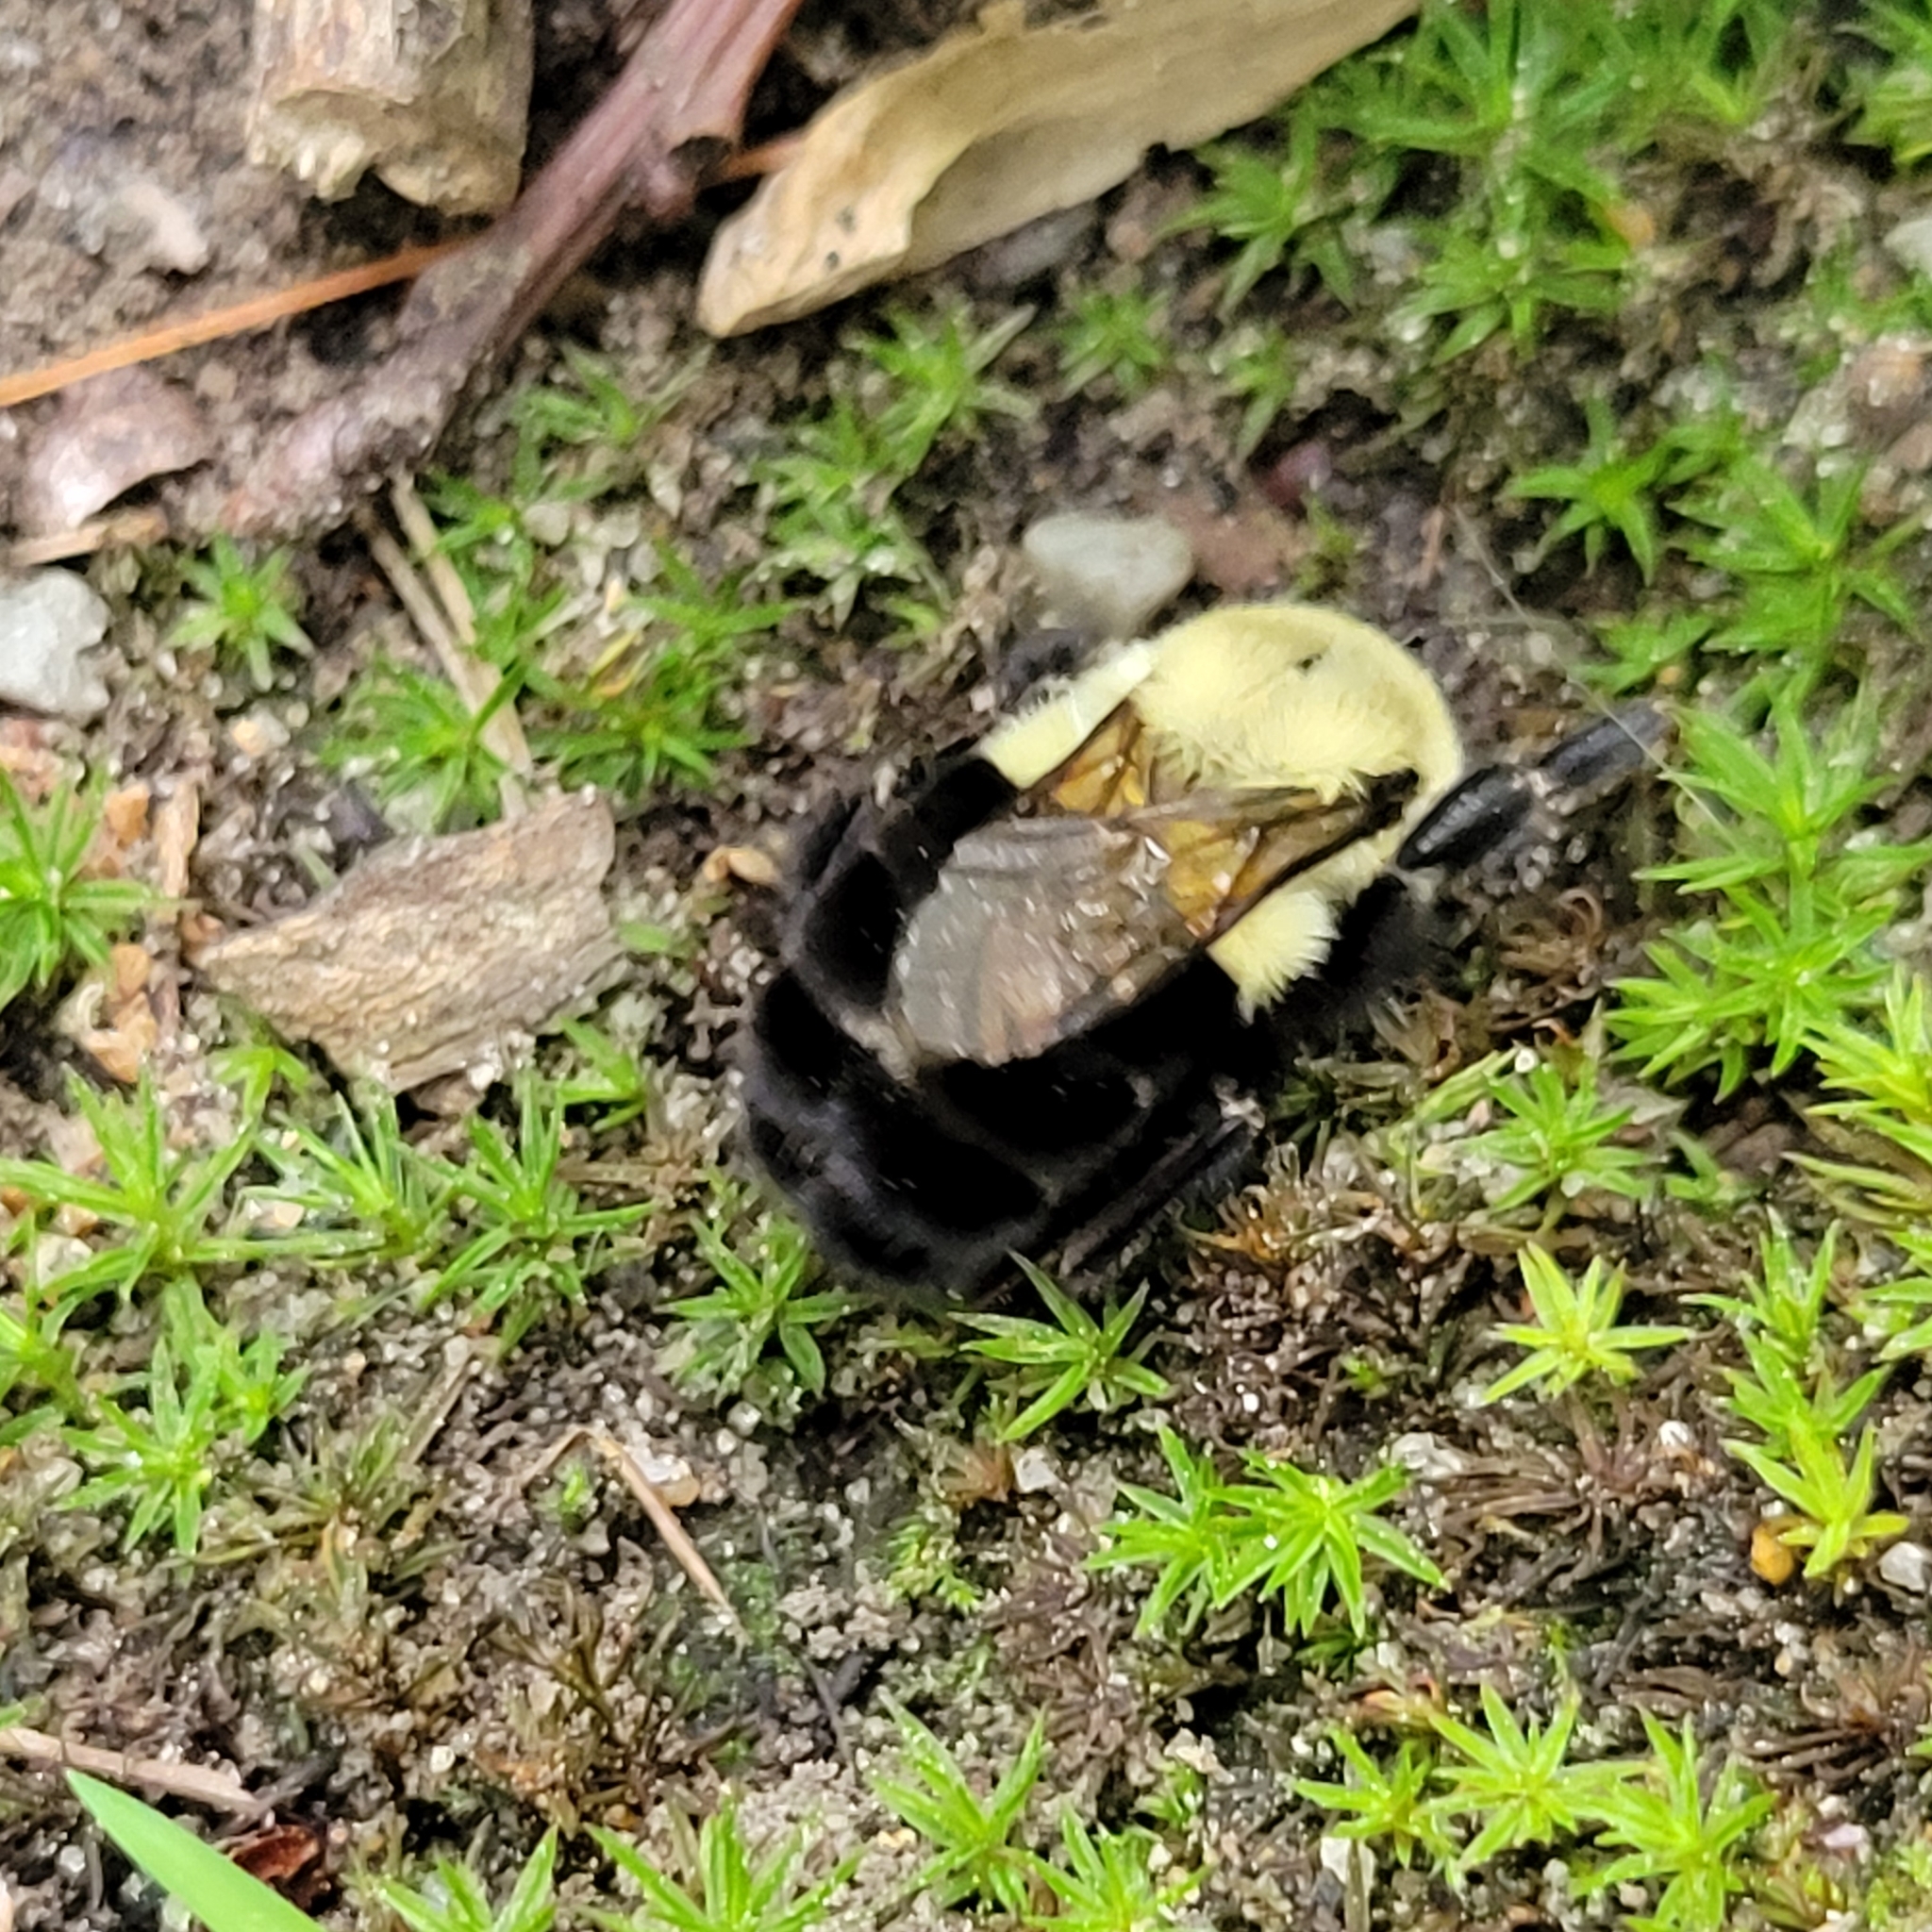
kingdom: Animalia
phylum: Arthropoda
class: Insecta
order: Hymenoptera
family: Apidae
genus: Bombus
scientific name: Bombus impatiens
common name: Common eastern bumble bee
